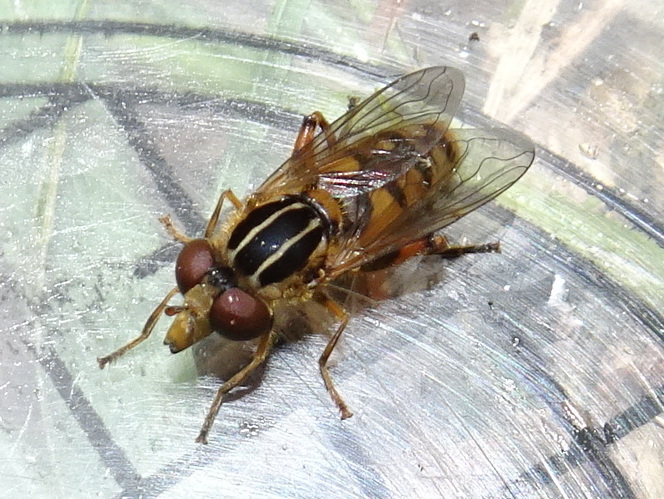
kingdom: Animalia
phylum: Arthropoda
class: Insecta
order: Diptera
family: Syrphidae
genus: Eurimyia
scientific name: Eurimyia stipatus
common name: Long-nosed swamp fly
